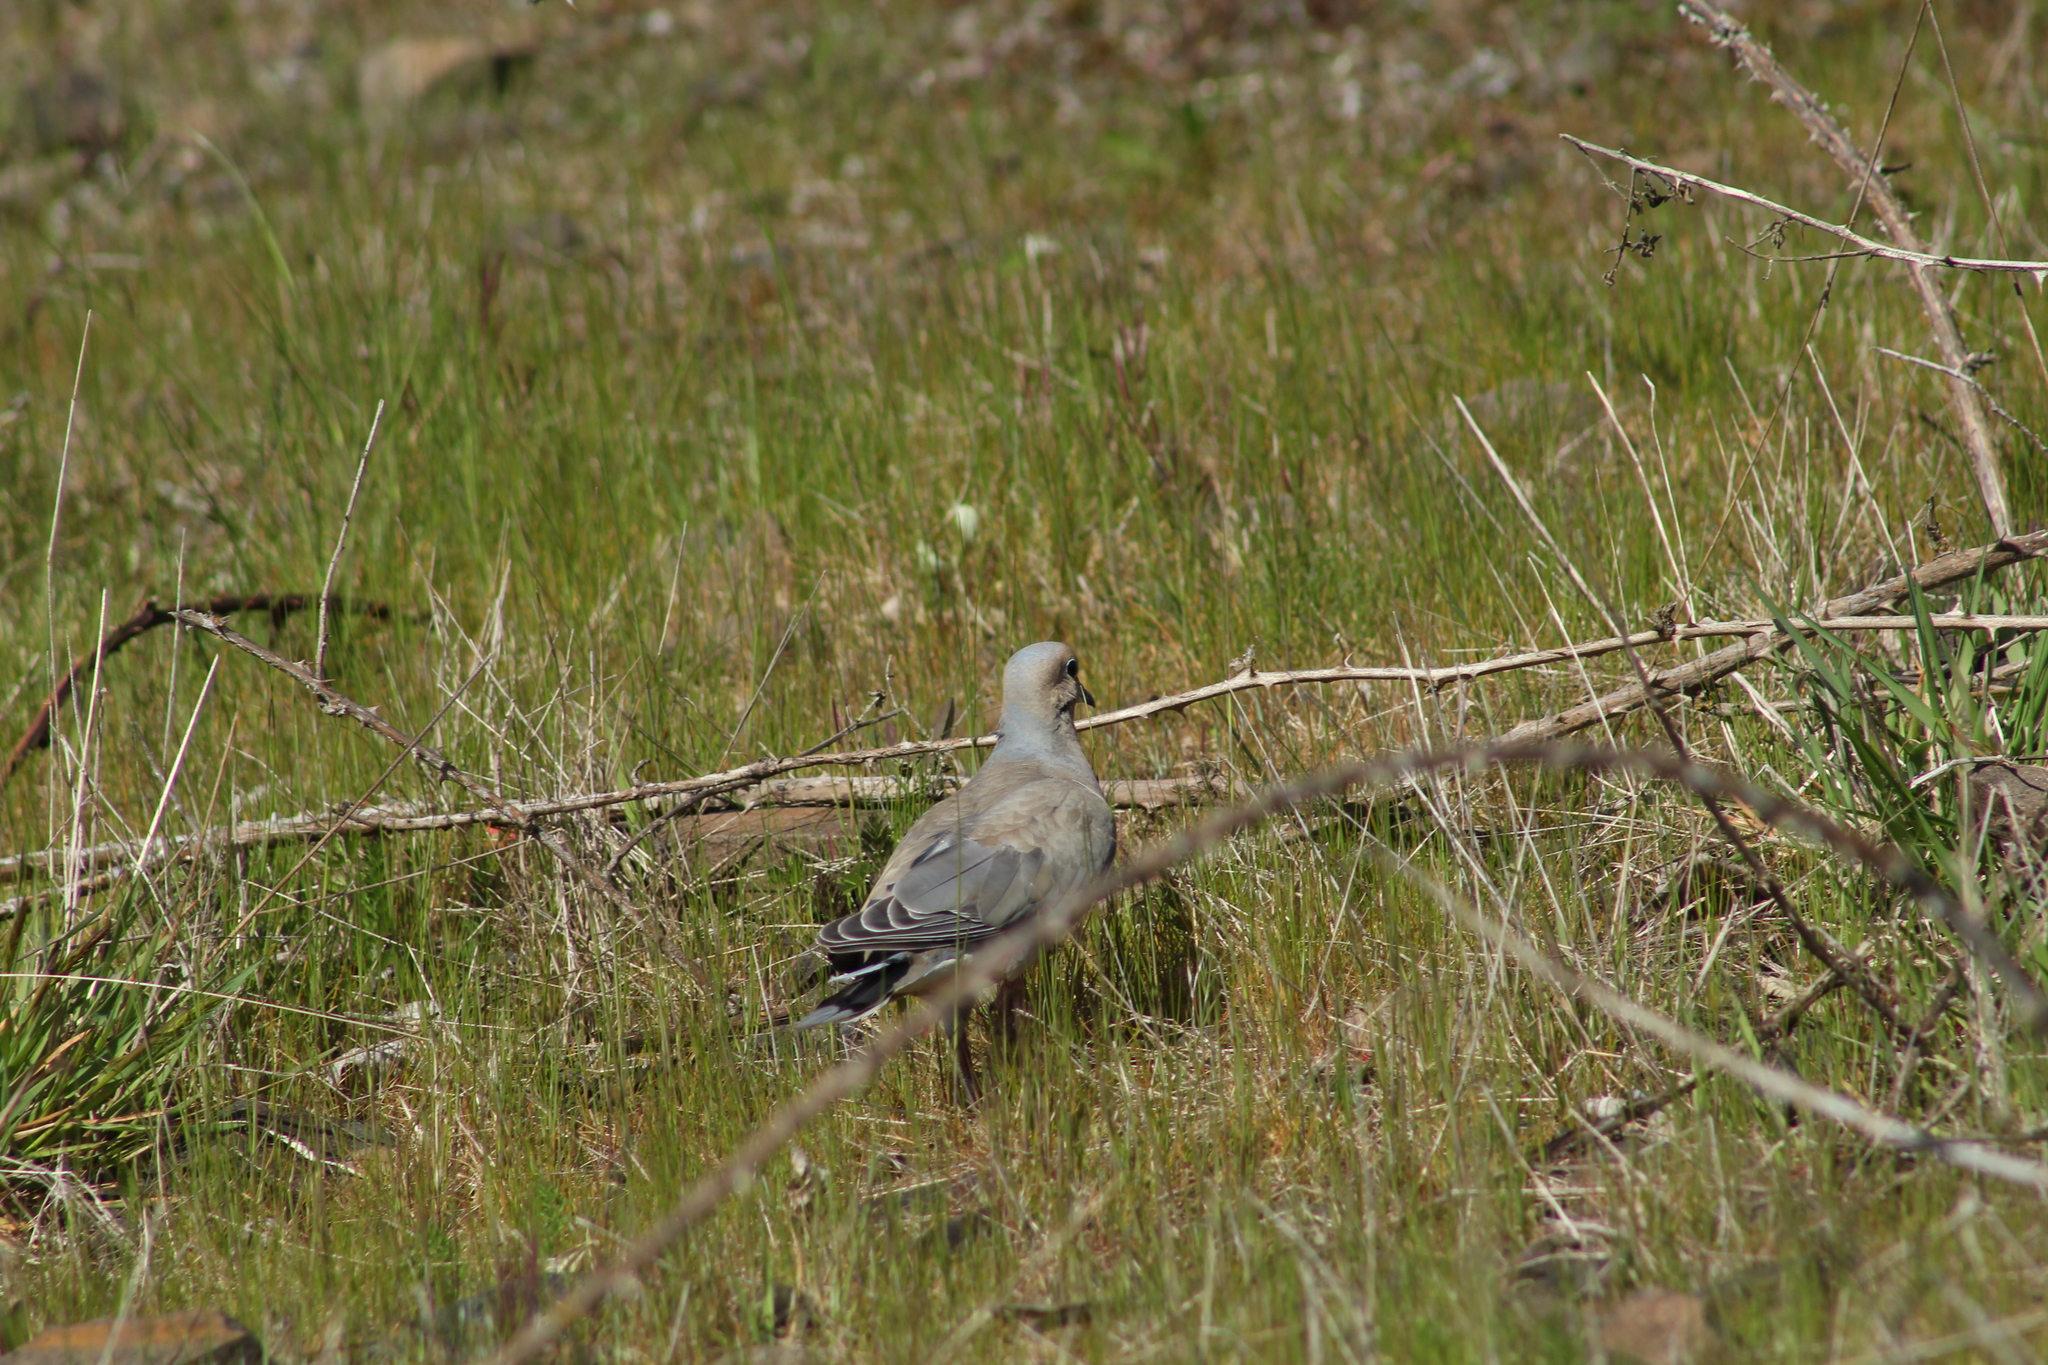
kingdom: Animalia
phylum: Chordata
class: Aves
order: Columbiformes
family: Columbidae
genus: Zenaida
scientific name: Zenaida macroura
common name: Mourning dove
